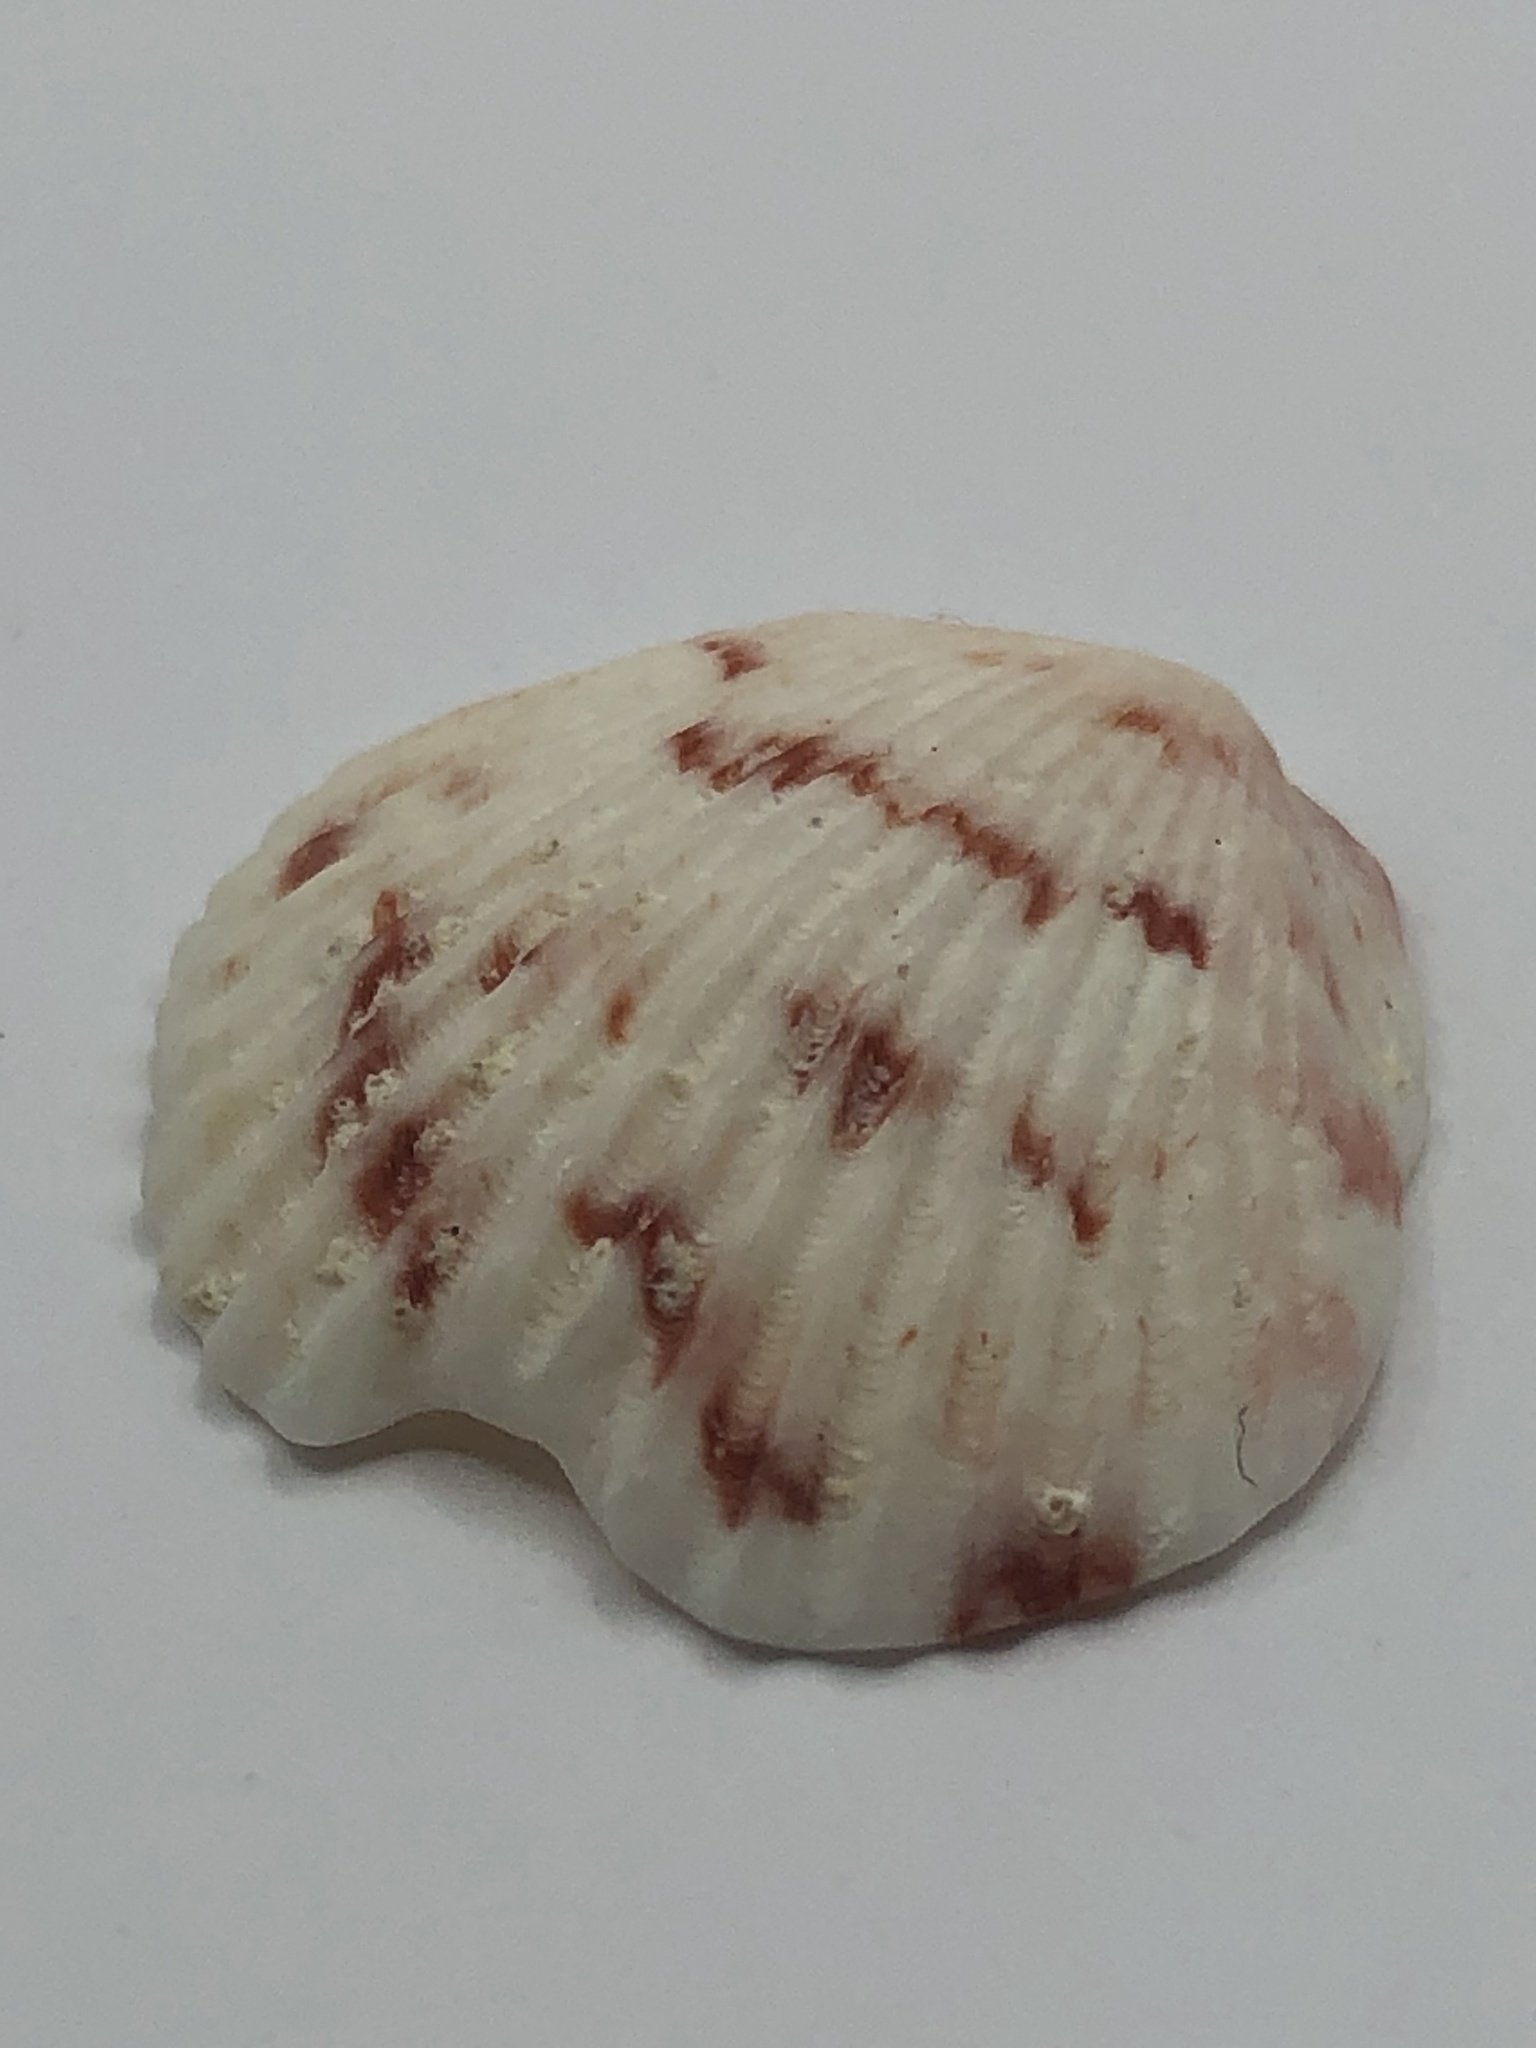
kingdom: Animalia
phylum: Mollusca
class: Bivalvia
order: Pectinida
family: Pectinidae
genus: Argopecten
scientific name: Argopecten gibbus
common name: Atlantic calico scallop
